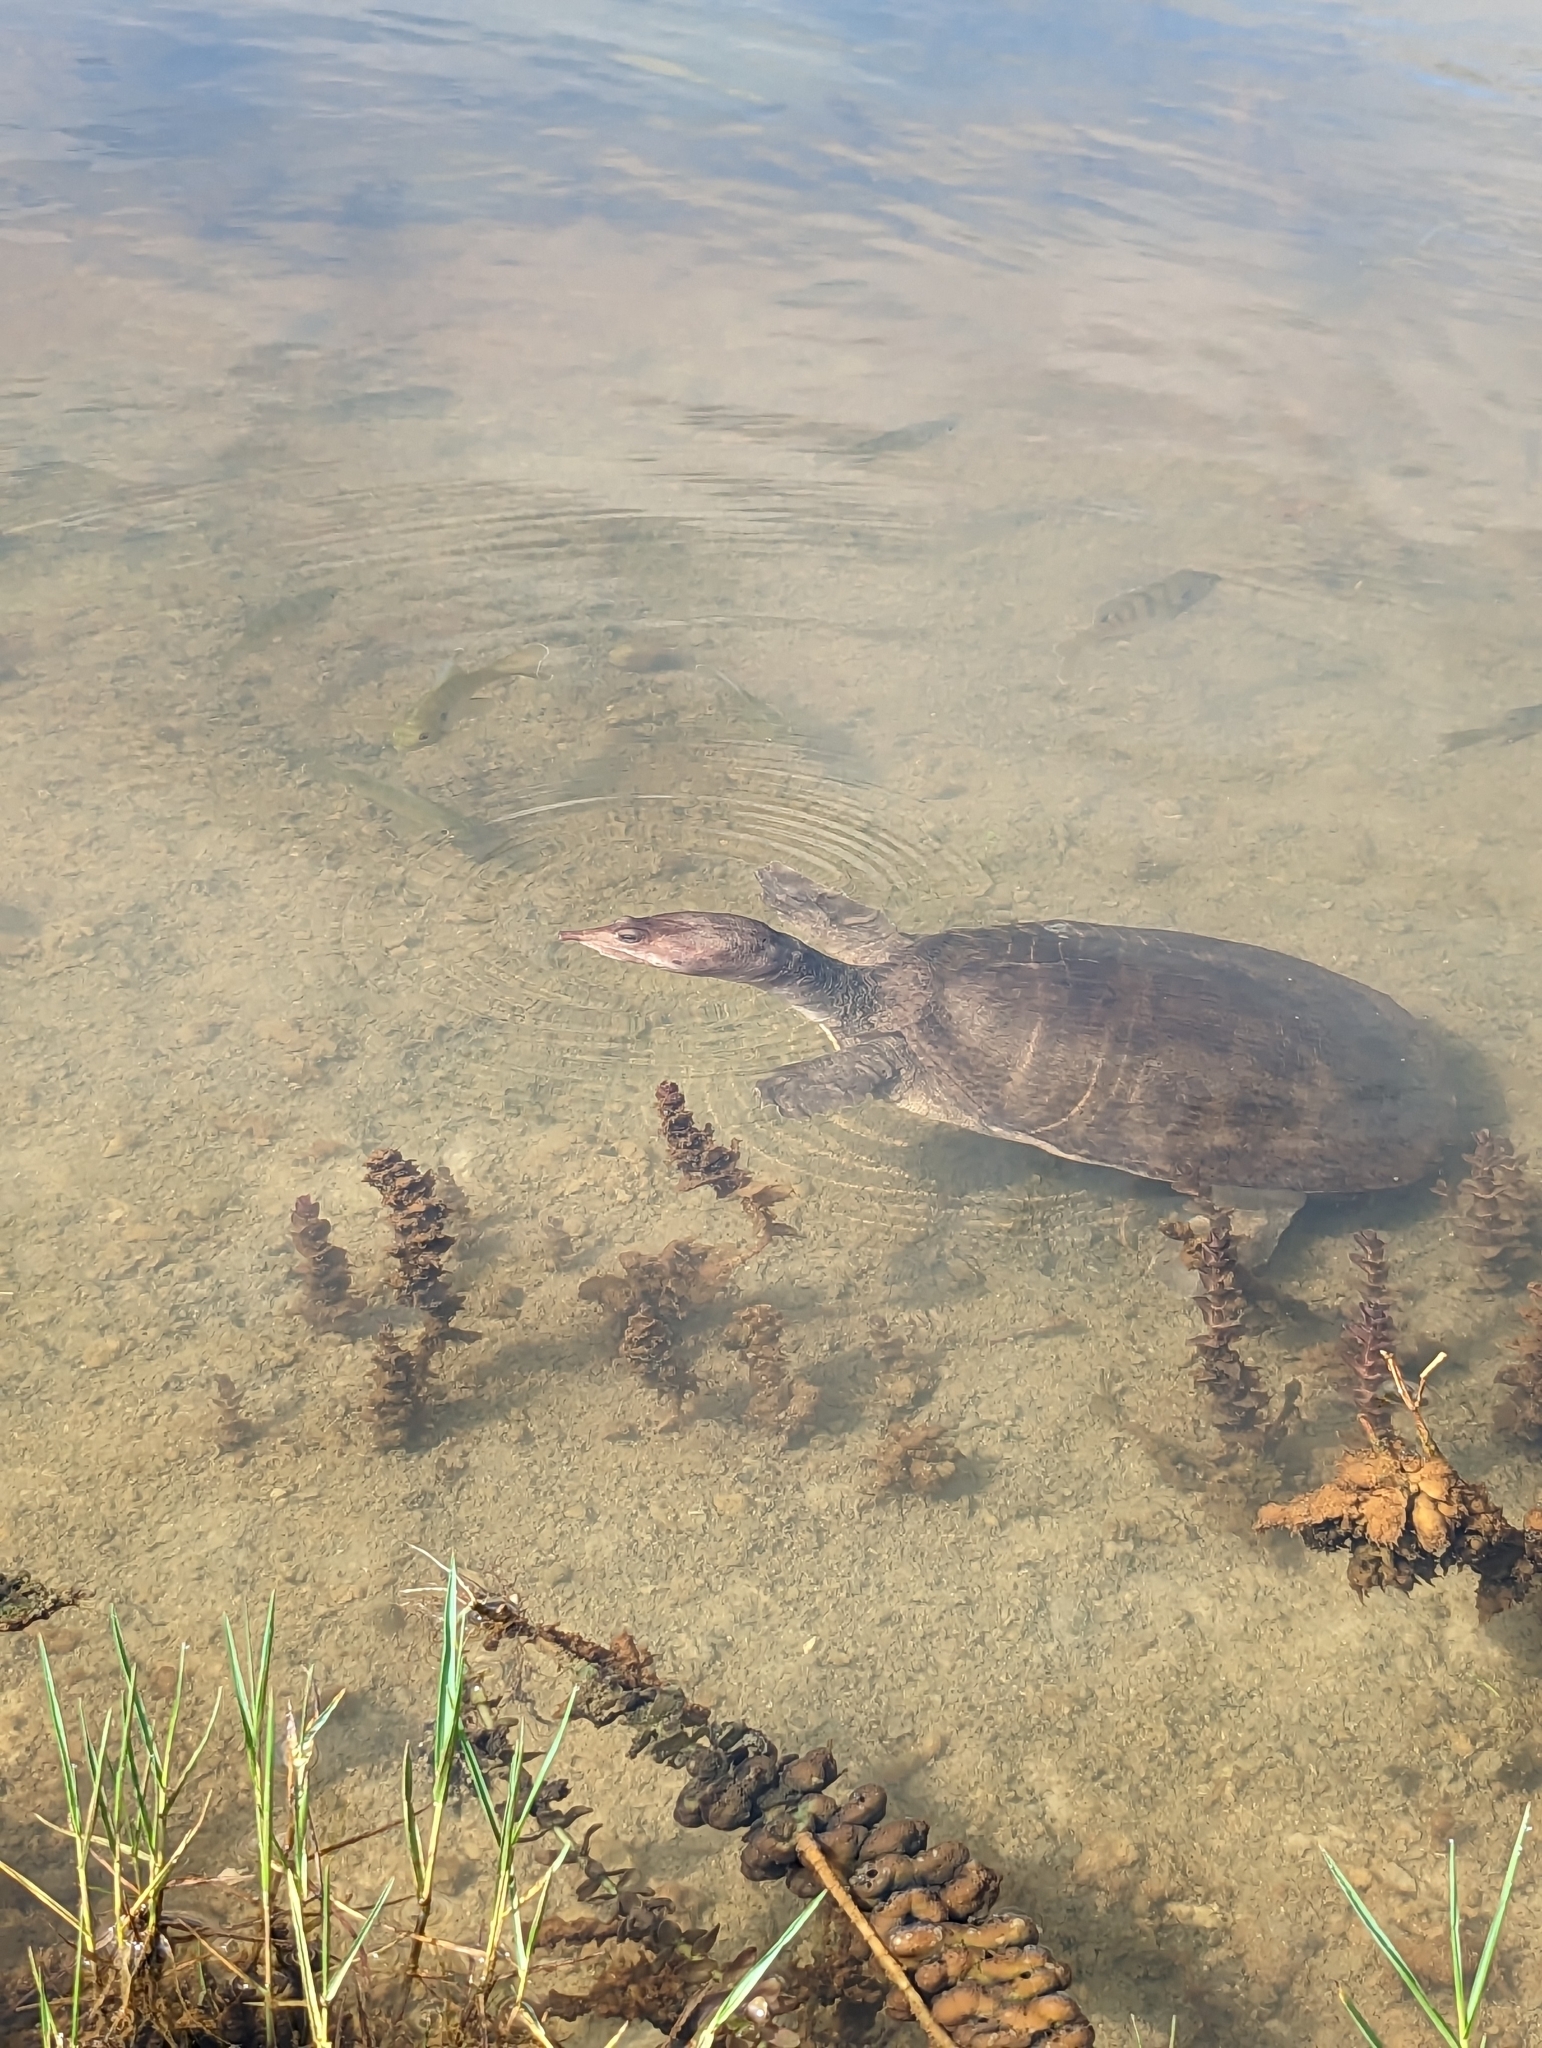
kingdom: Animalia
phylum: Chordata
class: Testudines
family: Trionychidae
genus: Apalone
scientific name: Apalone ferox
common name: Florida softshell turtle
